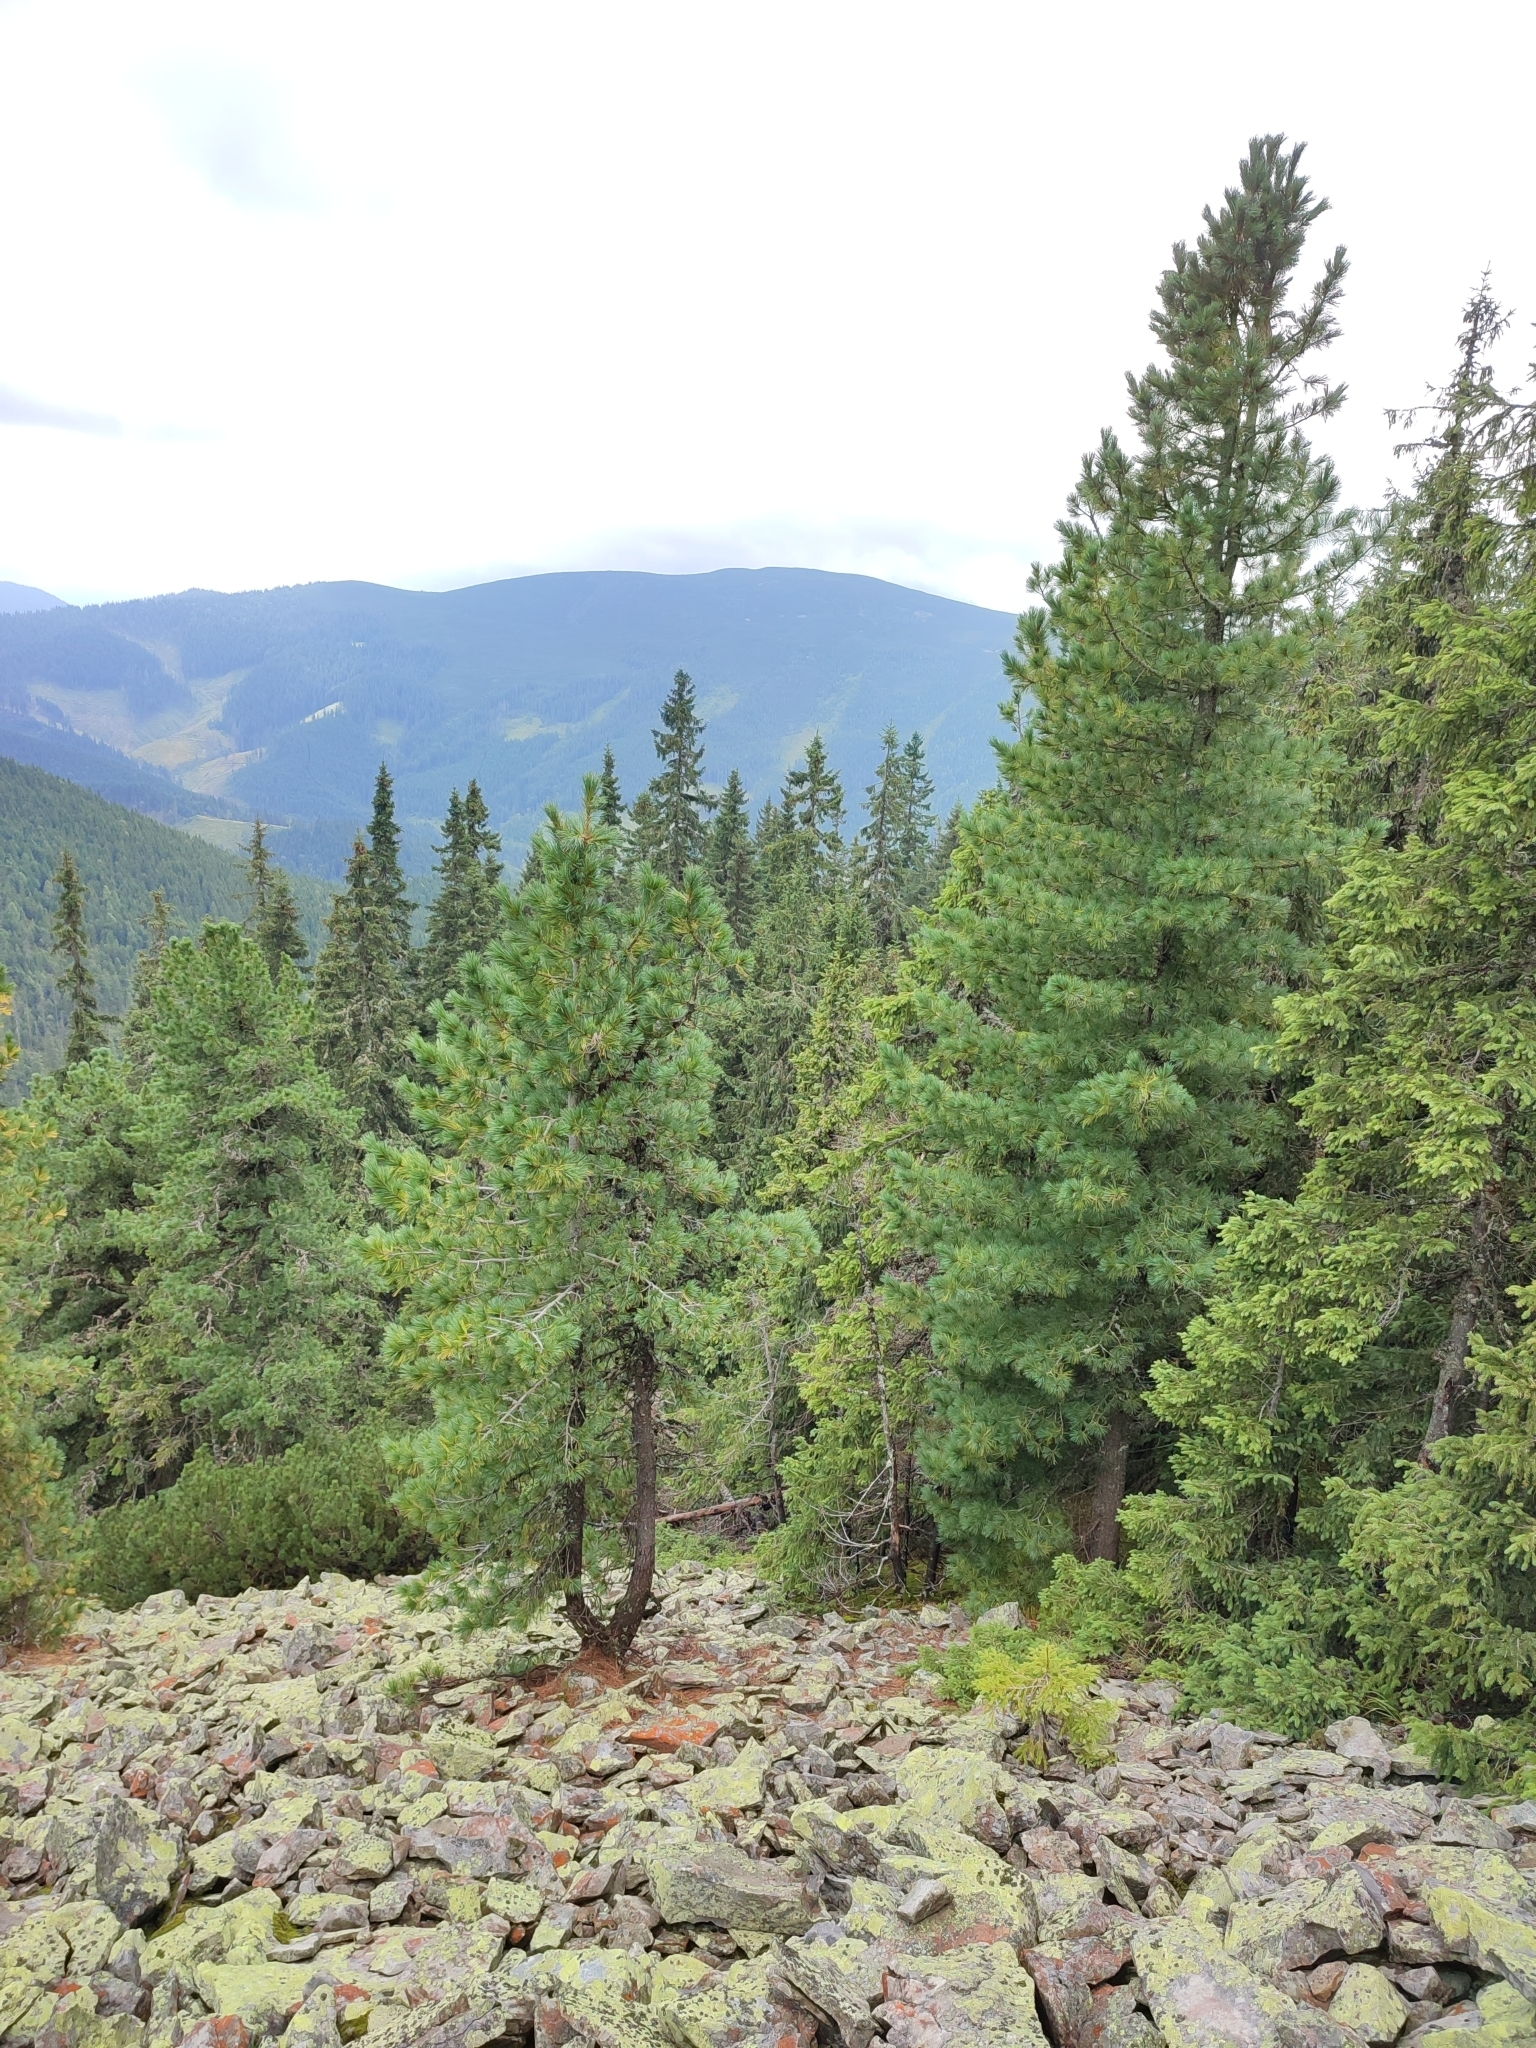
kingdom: Plantae
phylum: Tracheophyta
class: Pinopsida
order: Pinales
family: Pinaceae
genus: Pinus
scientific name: Pinus cembra
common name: Arolla pine
